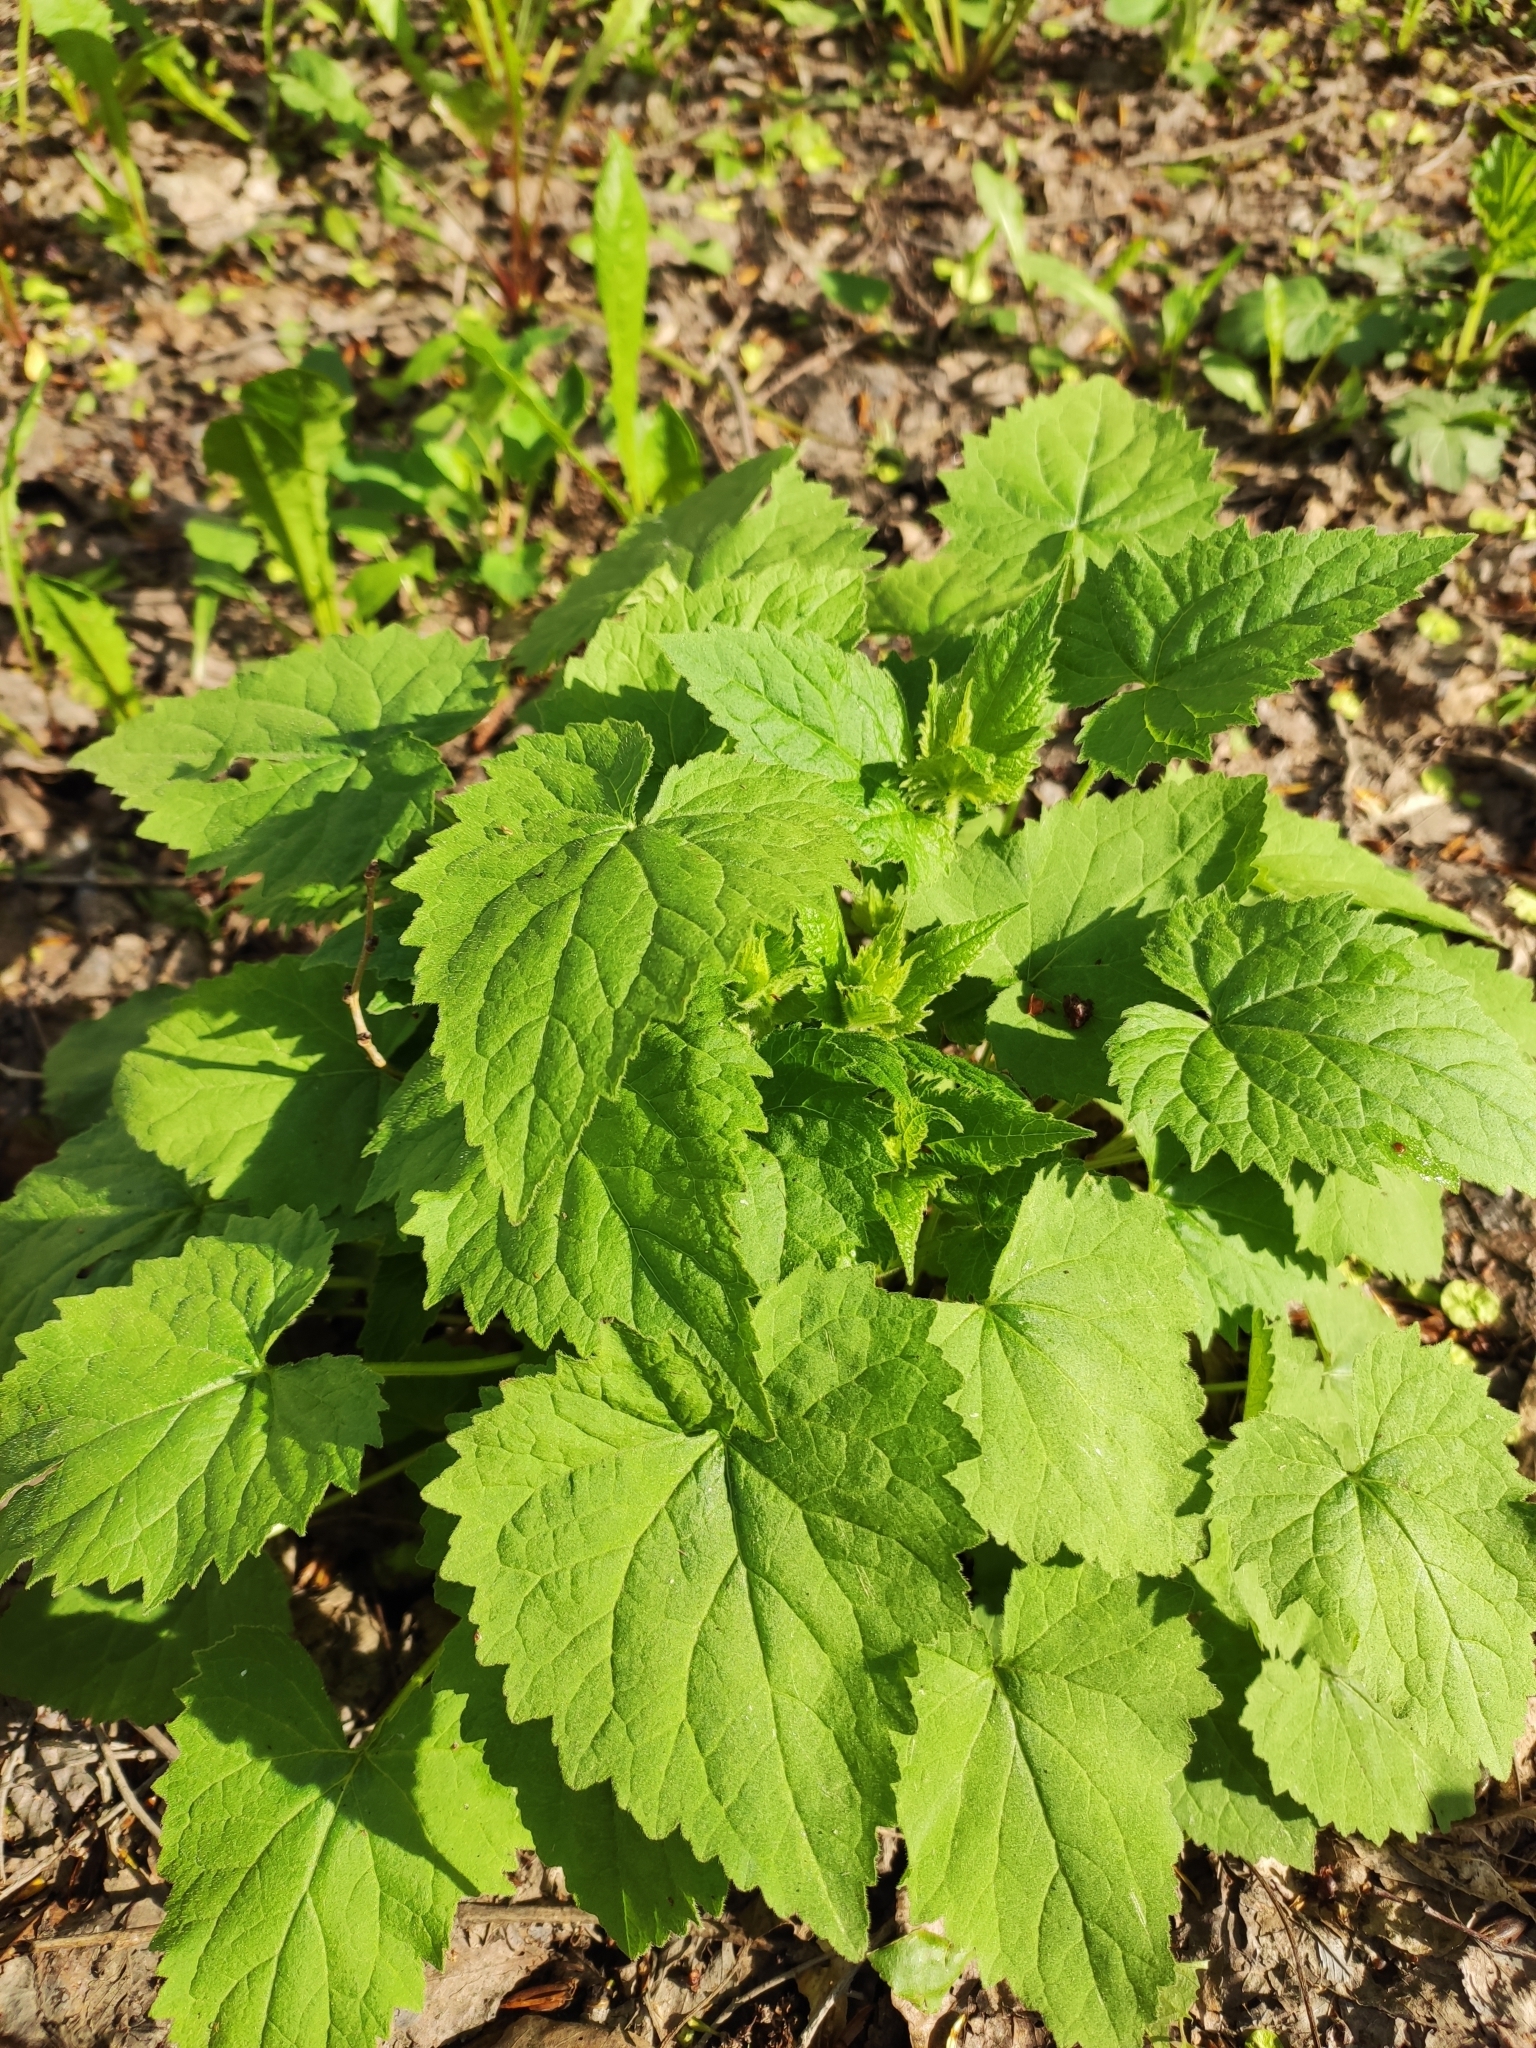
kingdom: Plantae
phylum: Tracheophyta
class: Magnoliopsida
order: Asterales
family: Campanulaceae
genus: Campanula
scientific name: Campanula trachelium
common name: Nettle-leaved bellflower
